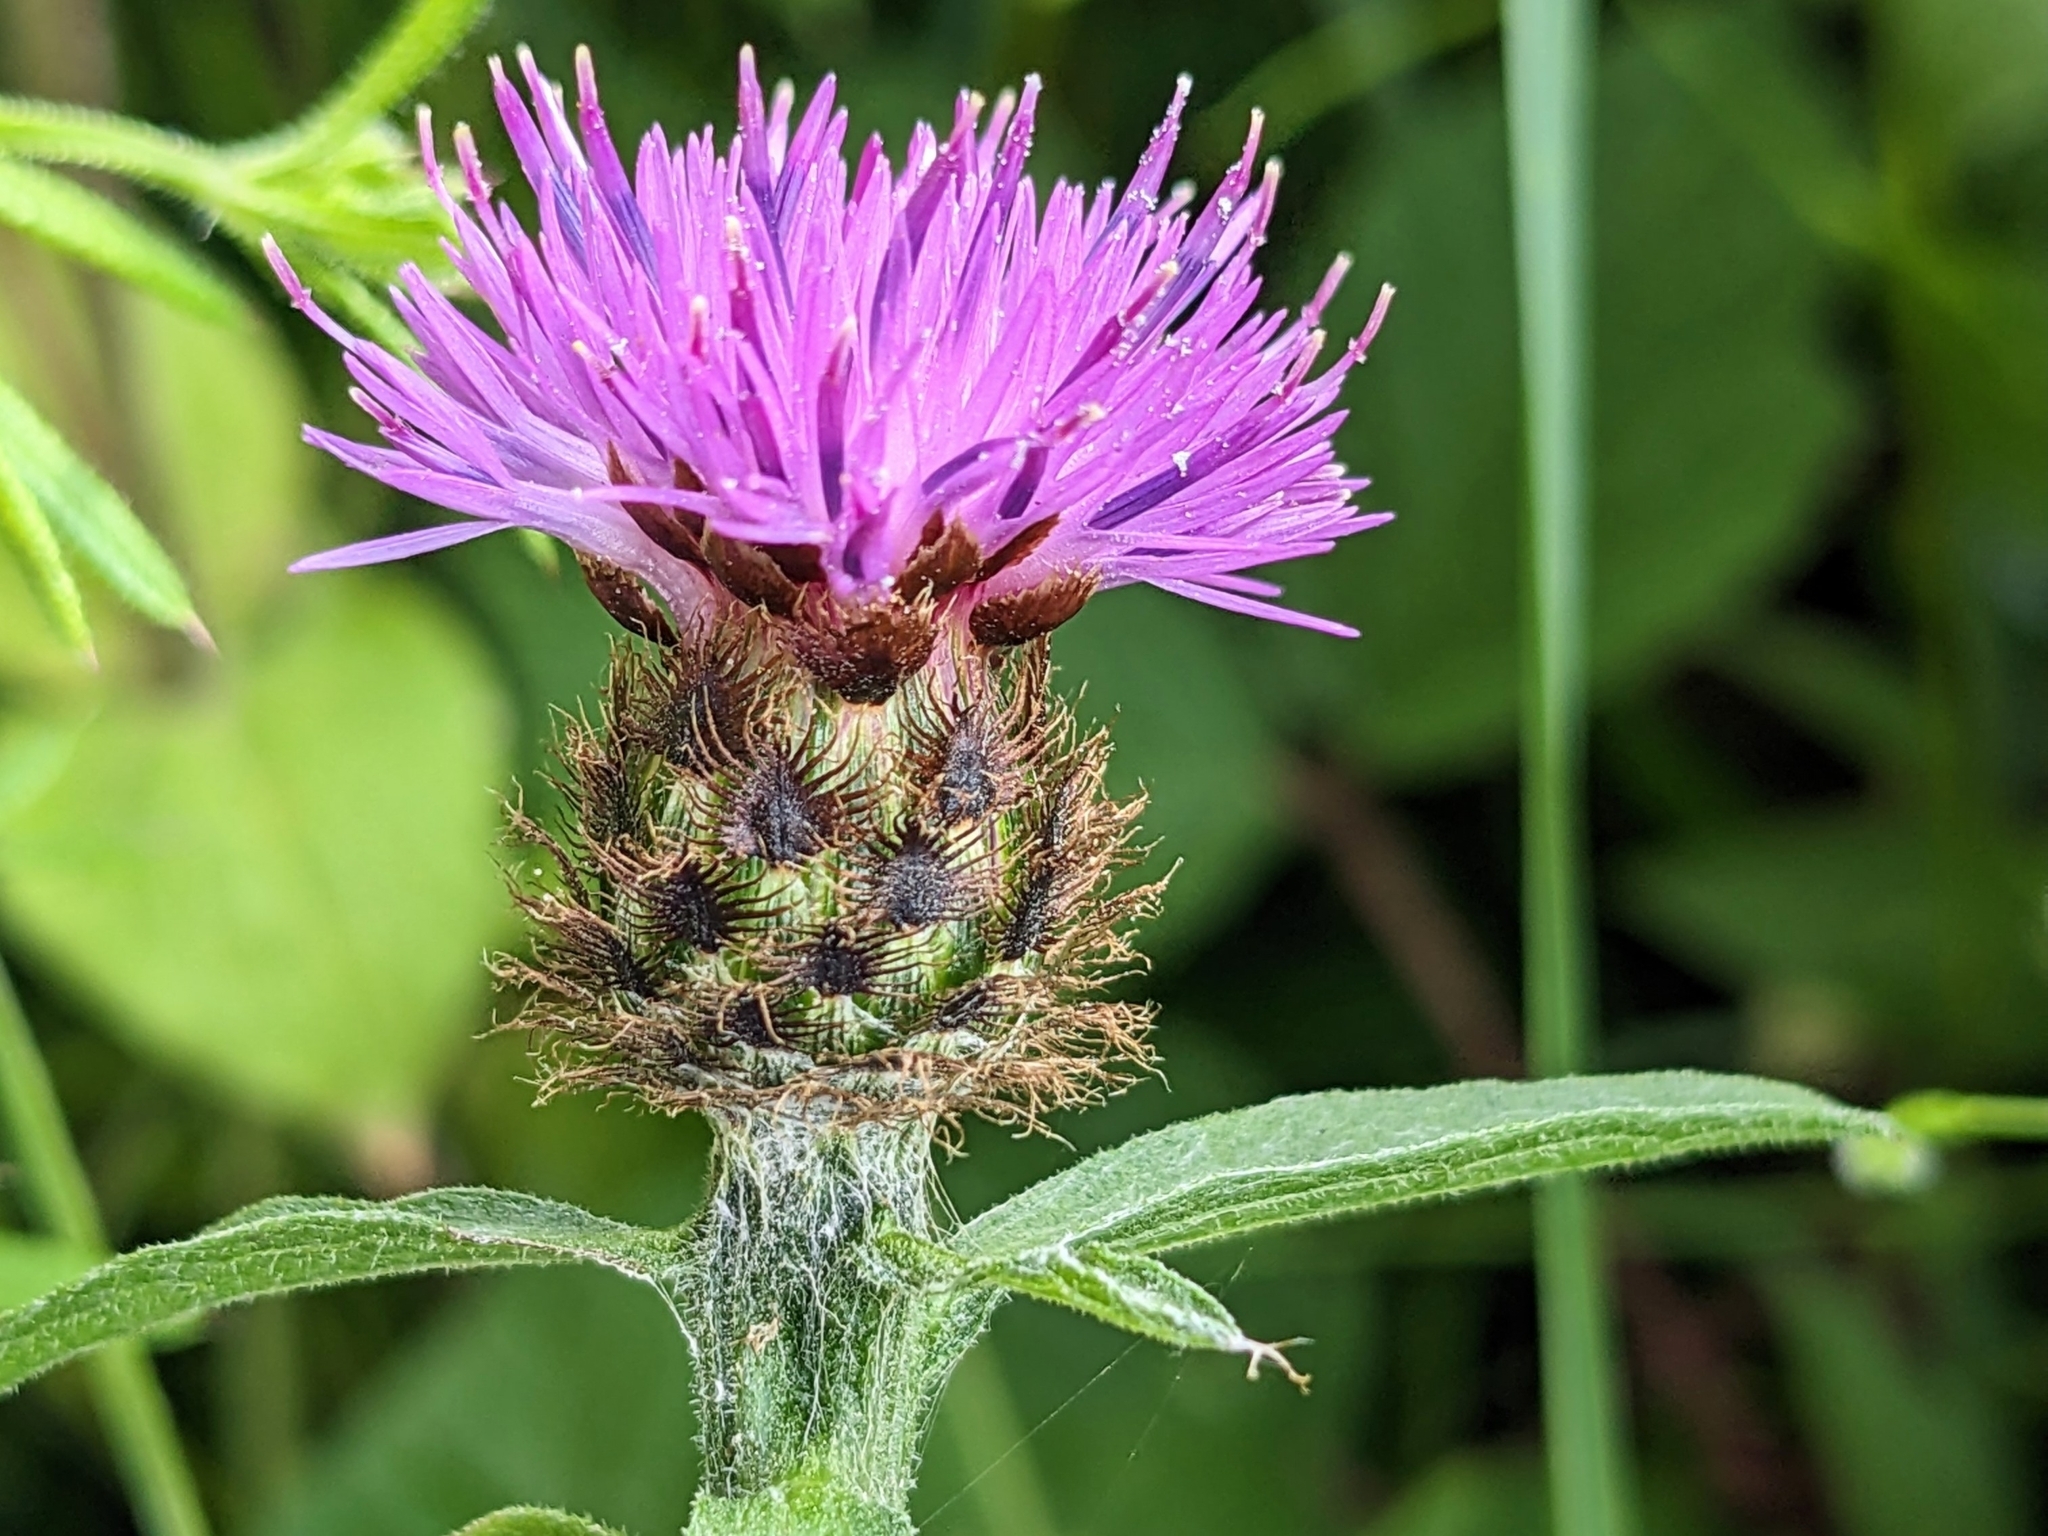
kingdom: Plantae
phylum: Tracheophyta
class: Magnoliopsida
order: Asterales
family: Asteraceae
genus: Centaurea
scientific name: Centaurea nigra
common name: Lesser knapweed
